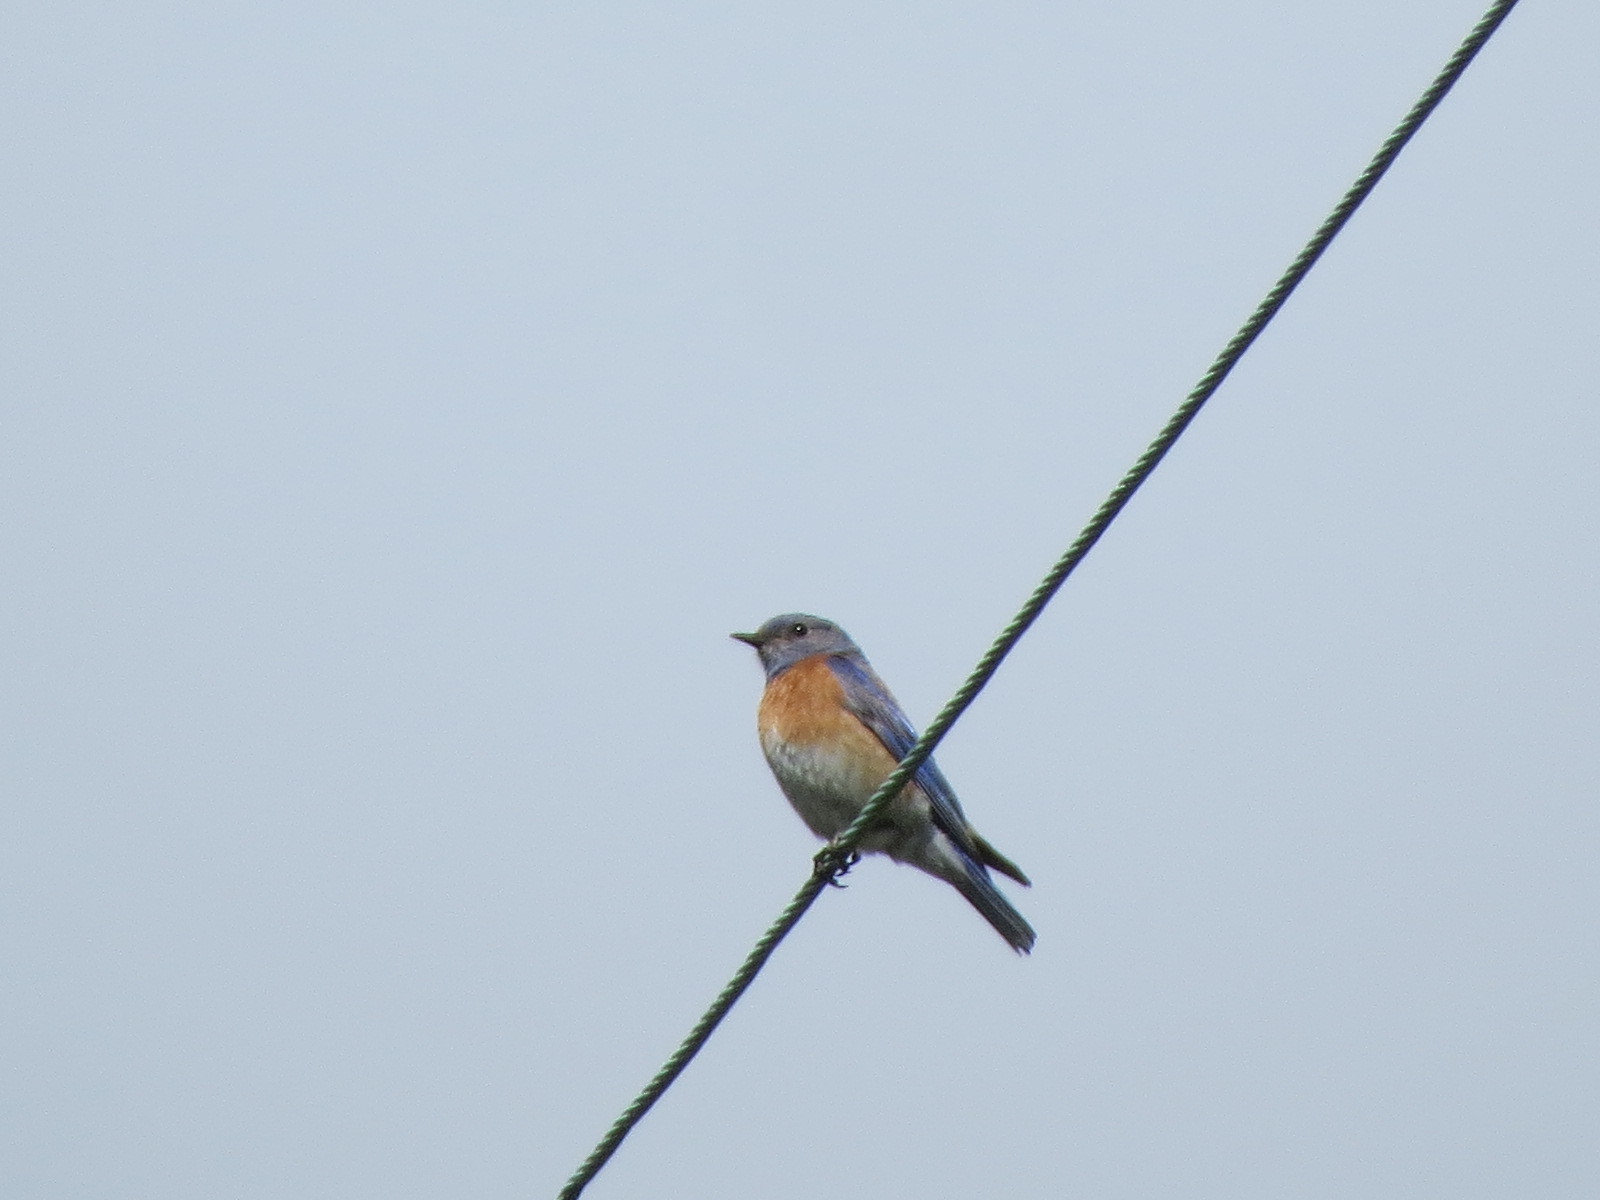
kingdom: Animalia
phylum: Chordata
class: Aves
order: Passeriformes
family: Turdidae
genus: Sialia
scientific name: Sialia mexicana
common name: Western bluebird
